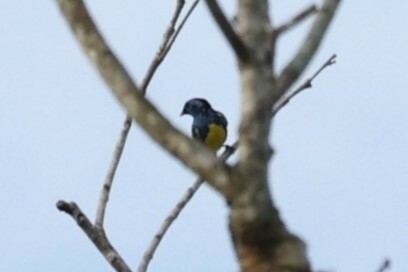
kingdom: Animalia
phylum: Chordata
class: Aves
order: Passeriformes
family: Thraupidae
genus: Tangara
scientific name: Tangara mexicana
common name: Turquoise tanager
